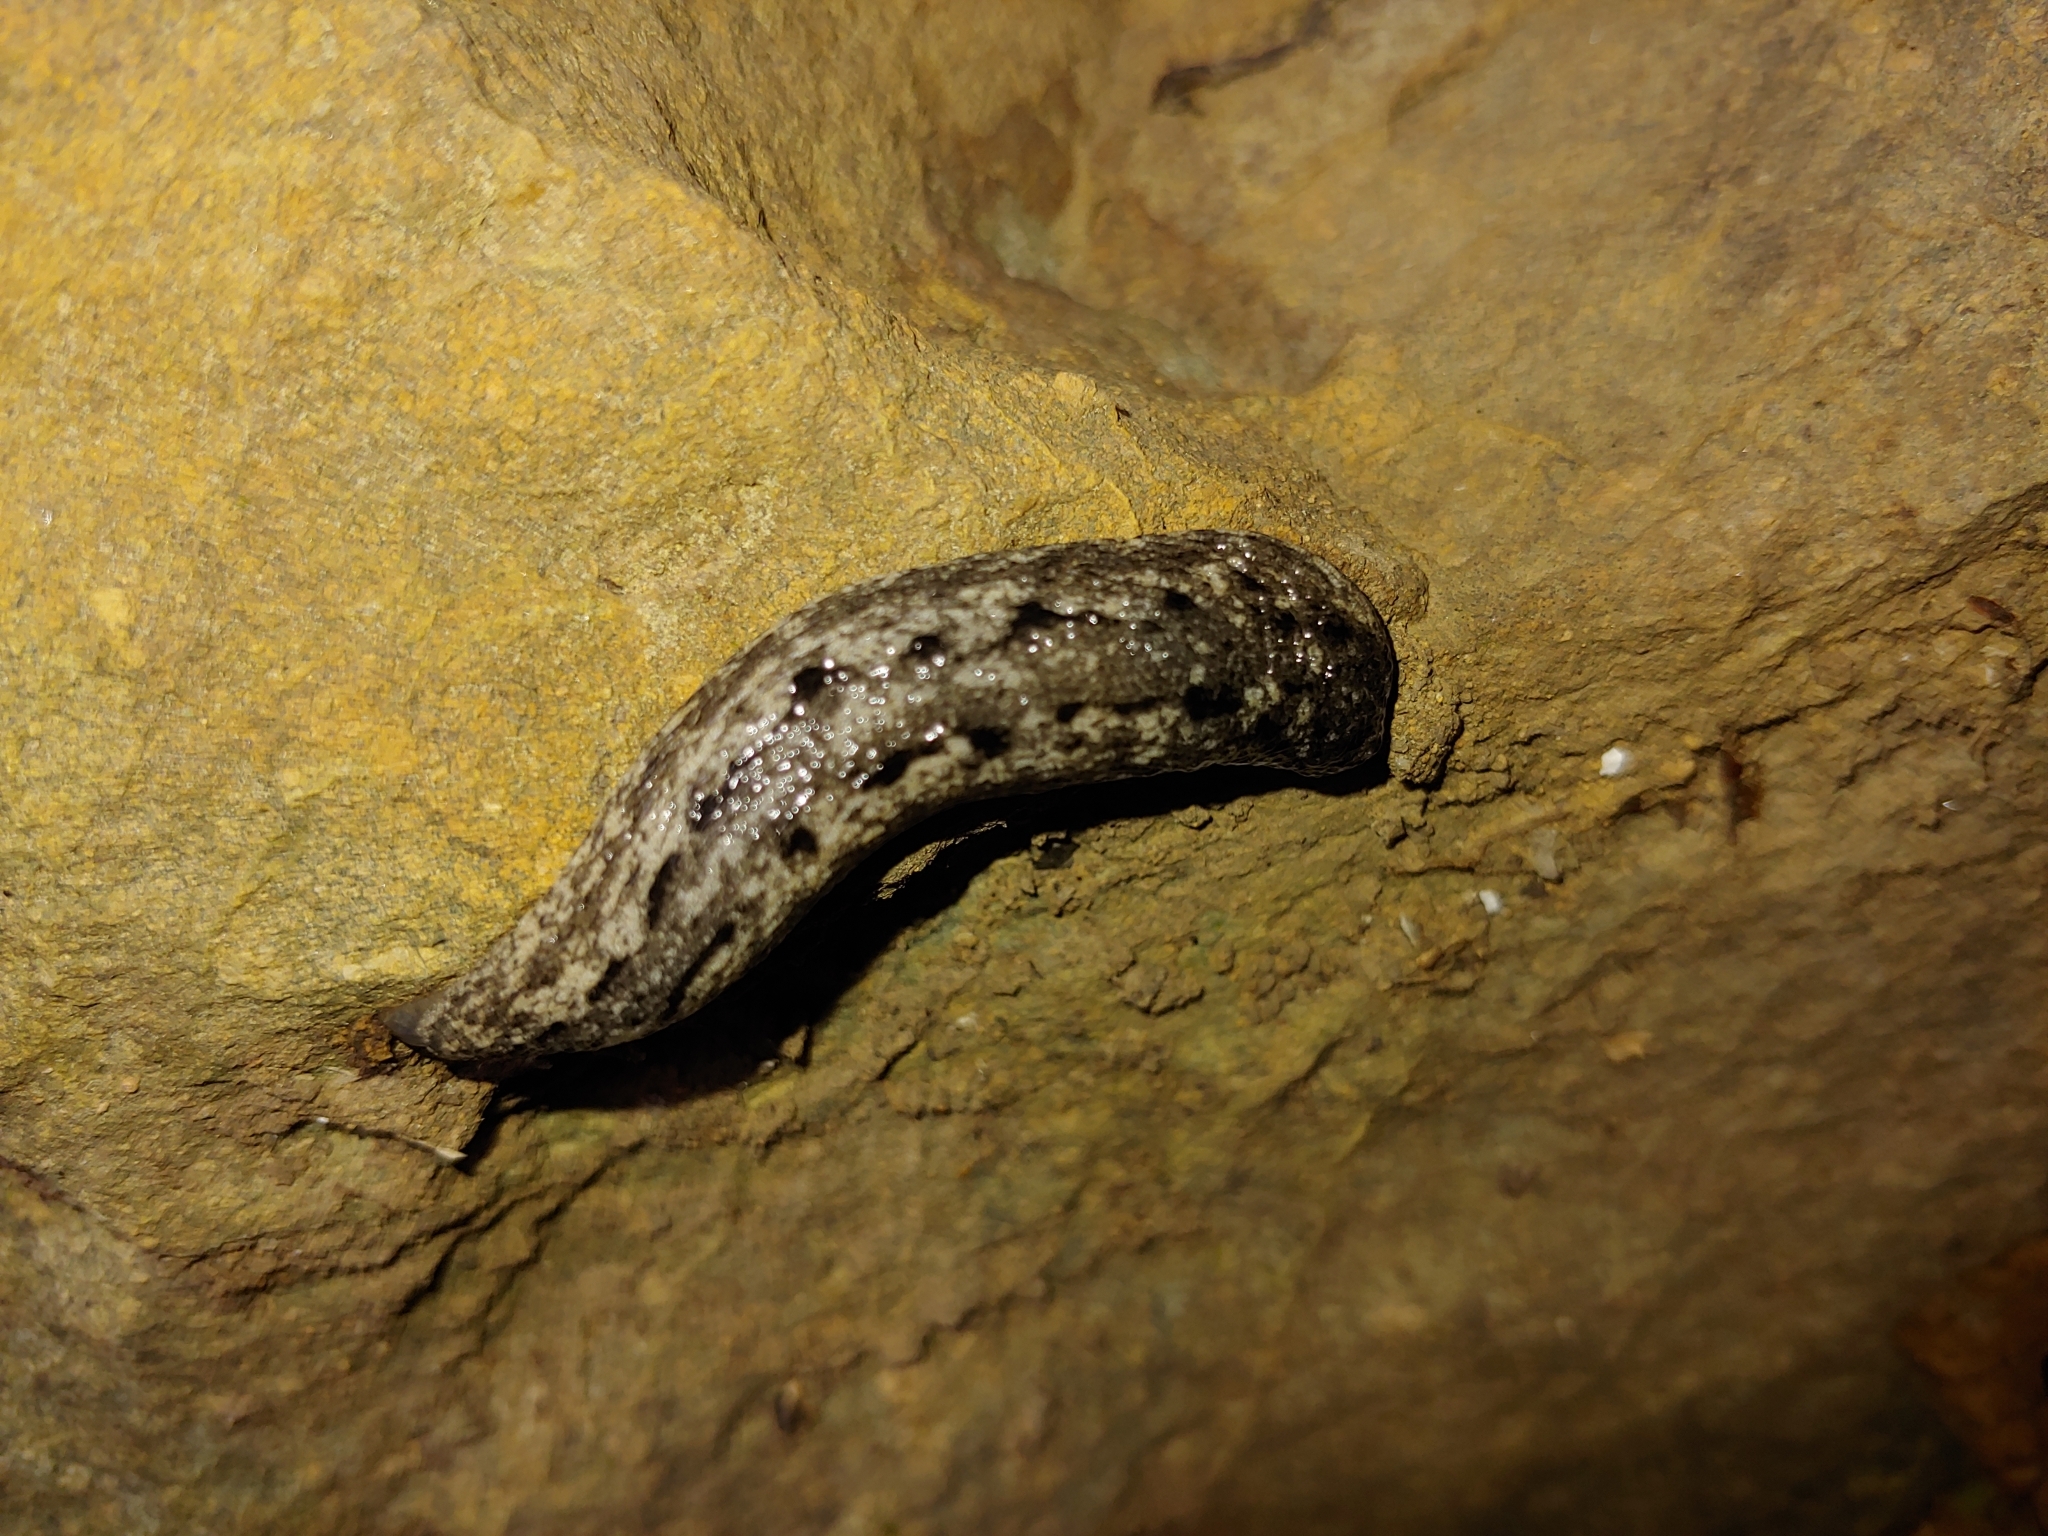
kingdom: Animalia
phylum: Mollusca
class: Gastropoda
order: Stylommatophora
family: Philomycidae
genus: Philomycus
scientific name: Philomycus carolinianus
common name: Carolina mantleslug
